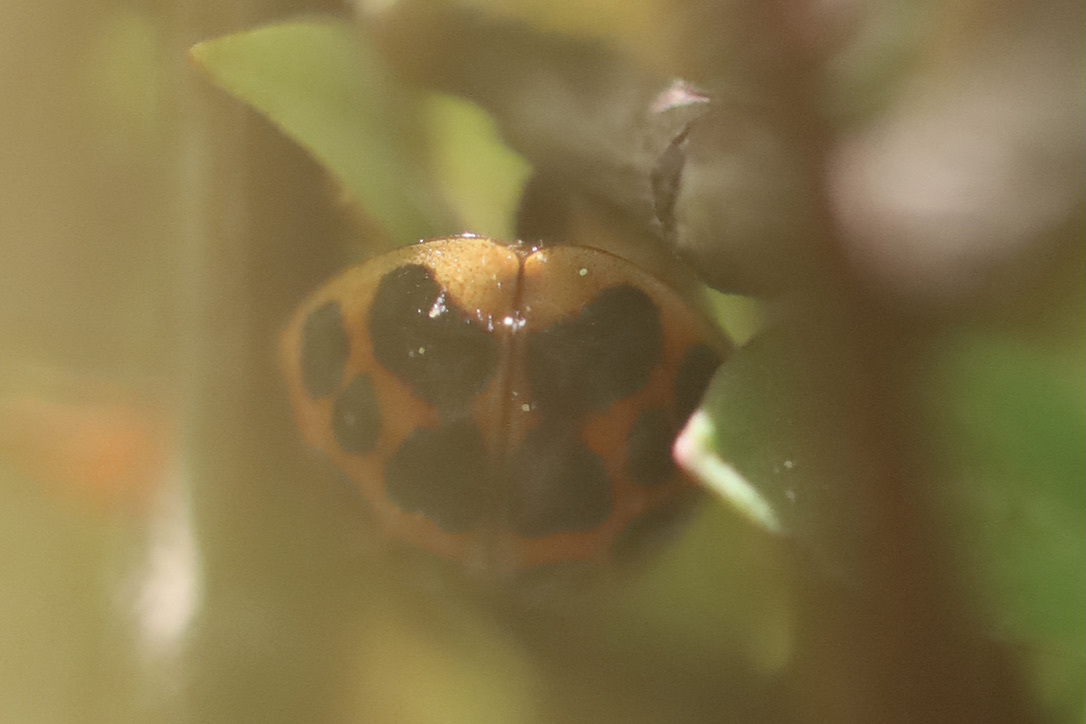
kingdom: Animalia
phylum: Arthropoda
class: Insecta
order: Coleoptera
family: Coccinellidae
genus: Harmonia
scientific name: Harmonia axyridis
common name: Harlequin ladybird
